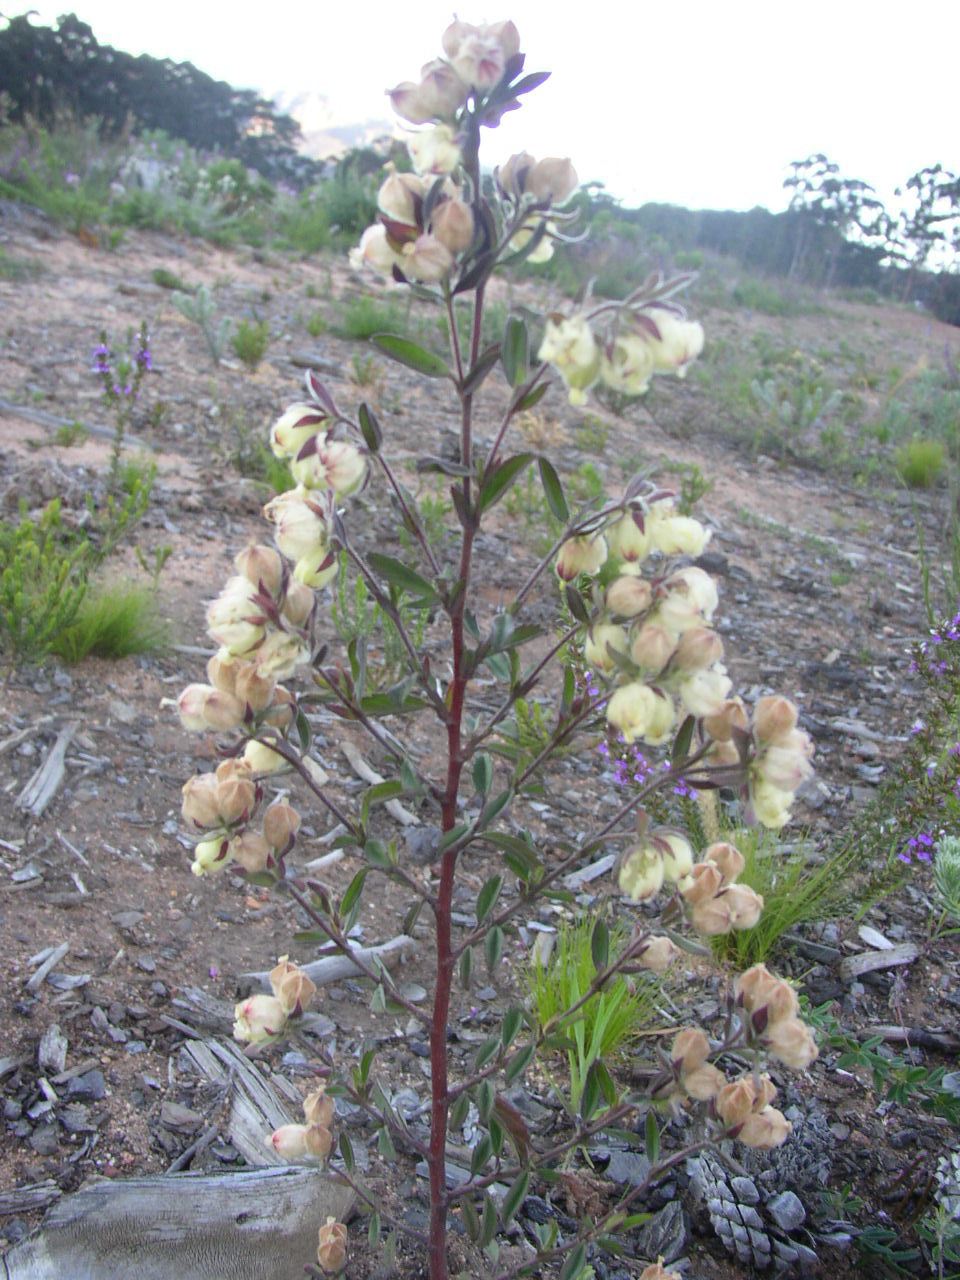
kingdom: Plantae
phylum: Tracheophyta
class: Magnoliopsida
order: Malvales
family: Malvaceae
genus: Hermannia
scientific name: Hermannia hyssopifolia
